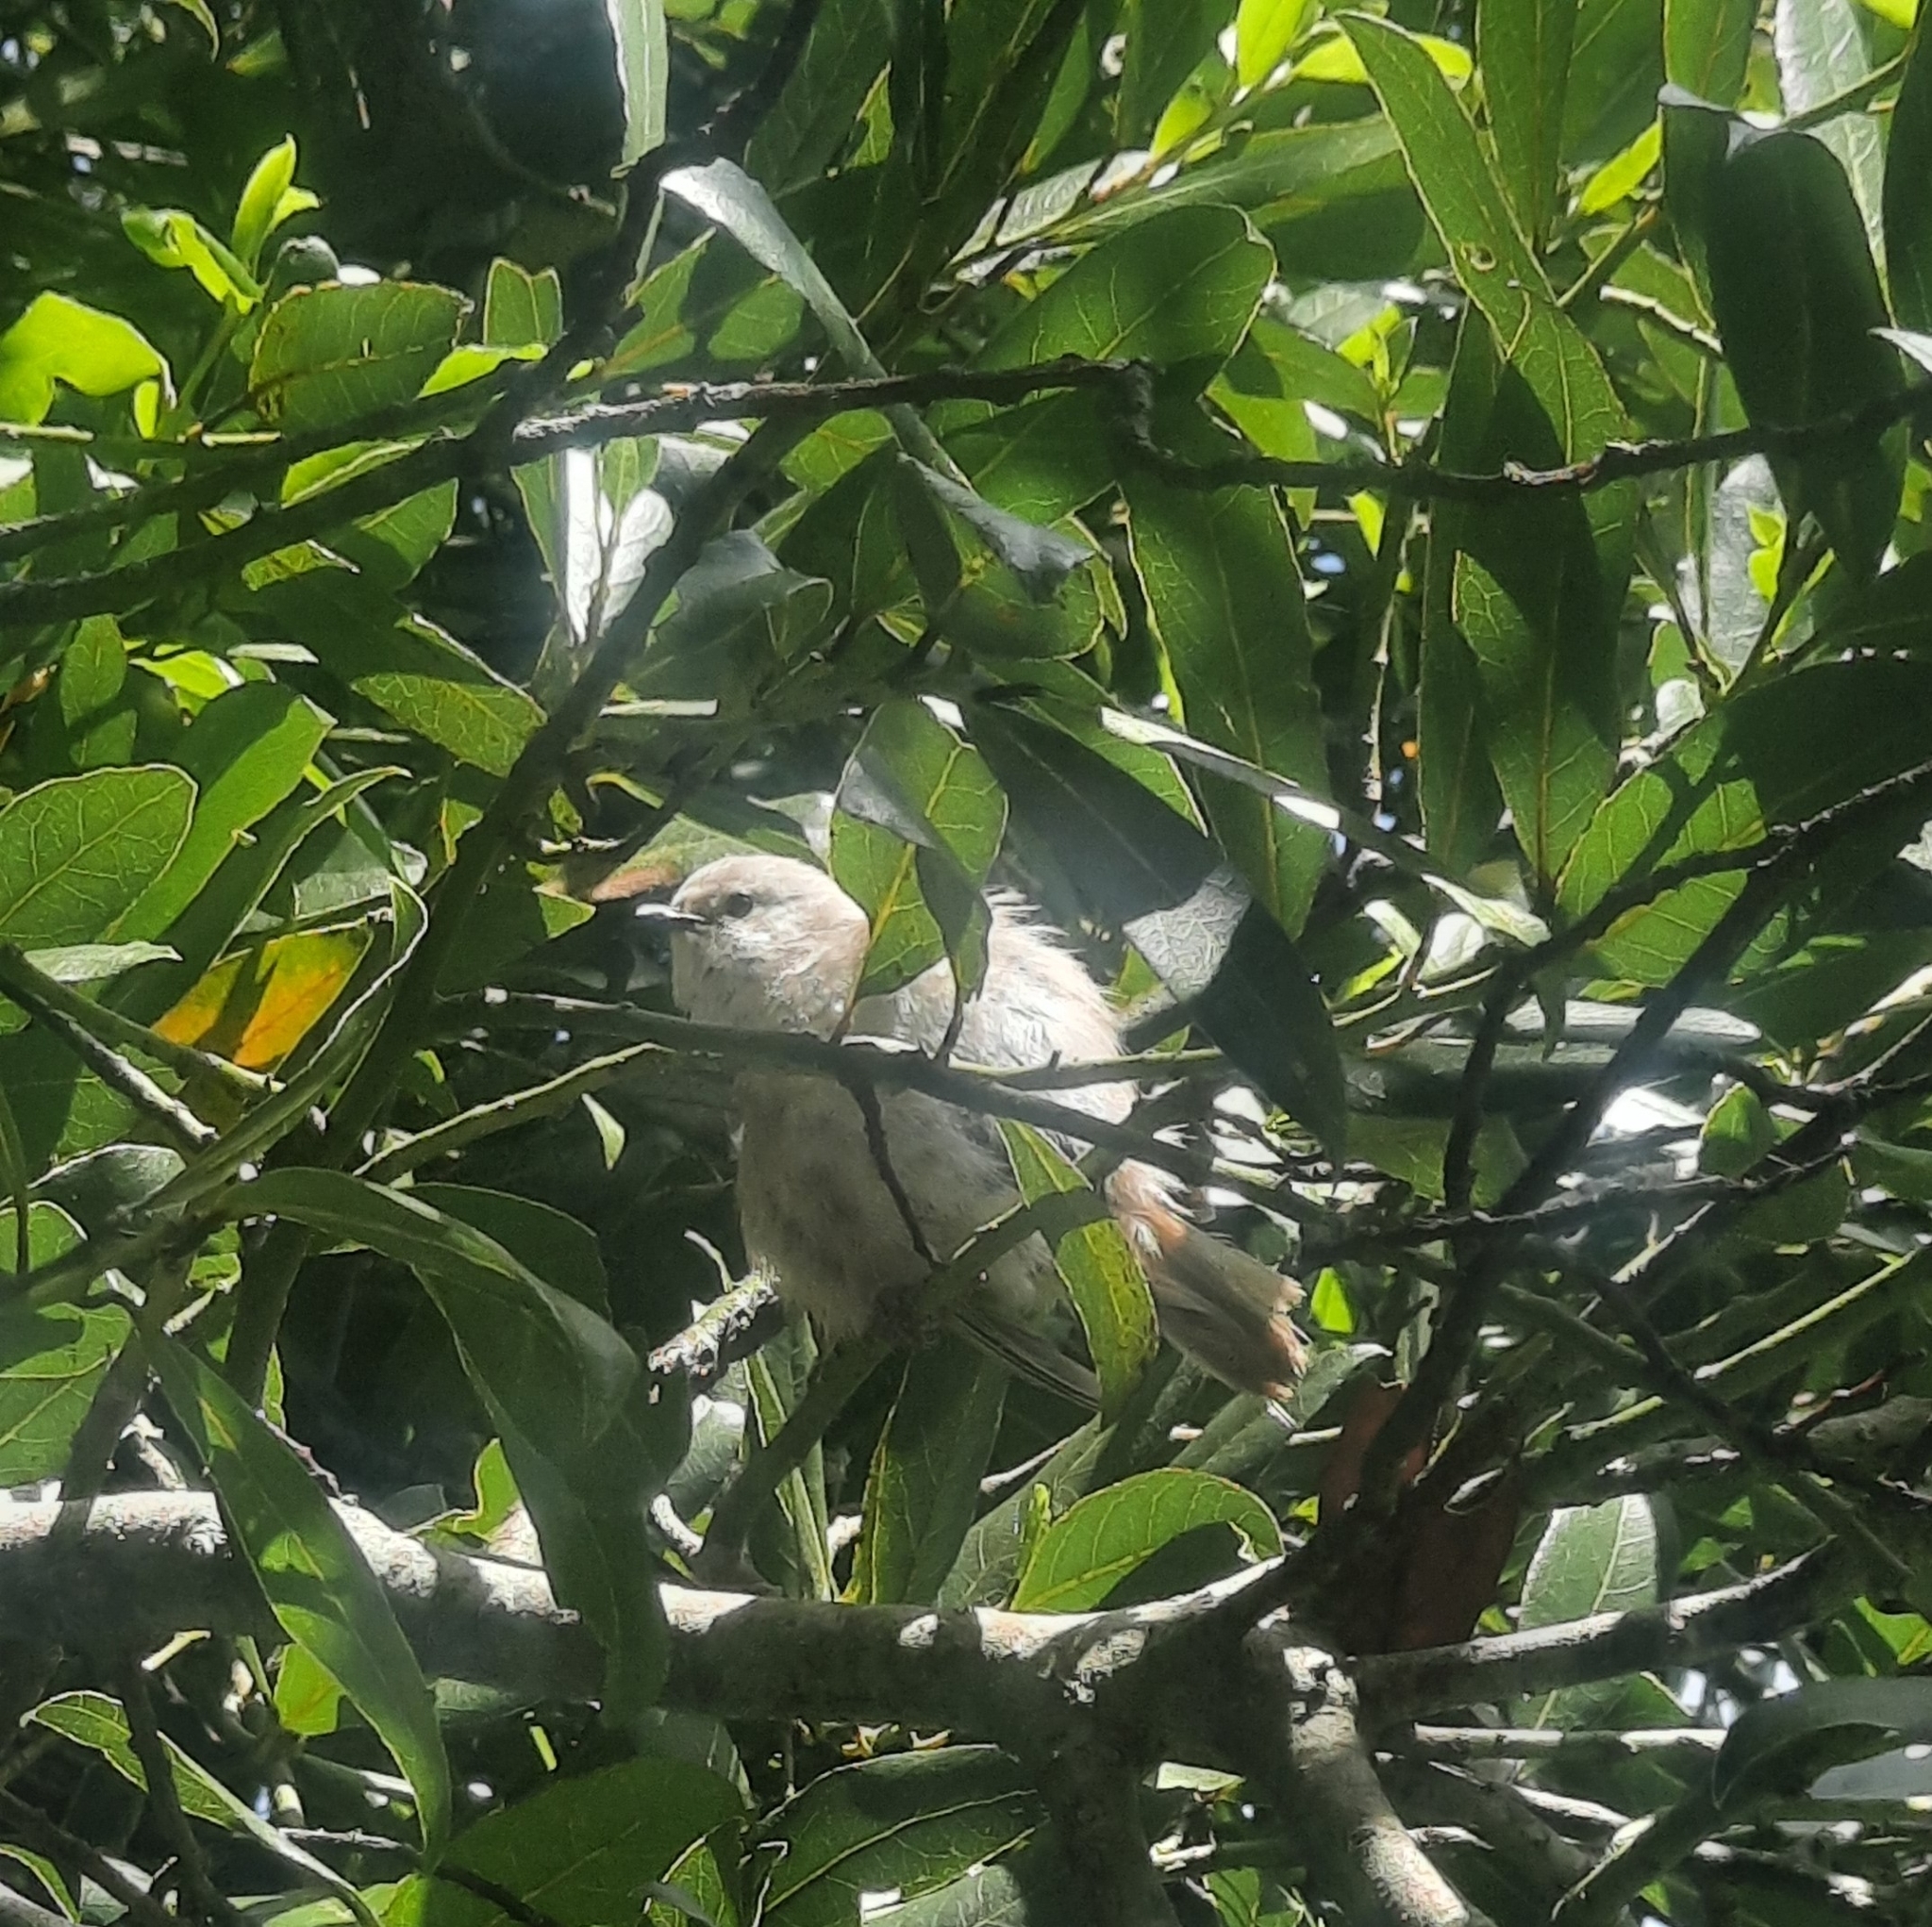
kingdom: Animalia
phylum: Chordata
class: Aves
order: Passeriformes
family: Acanthizidae
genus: Mohoua
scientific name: Mohoua albicilla
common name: Whitehead
